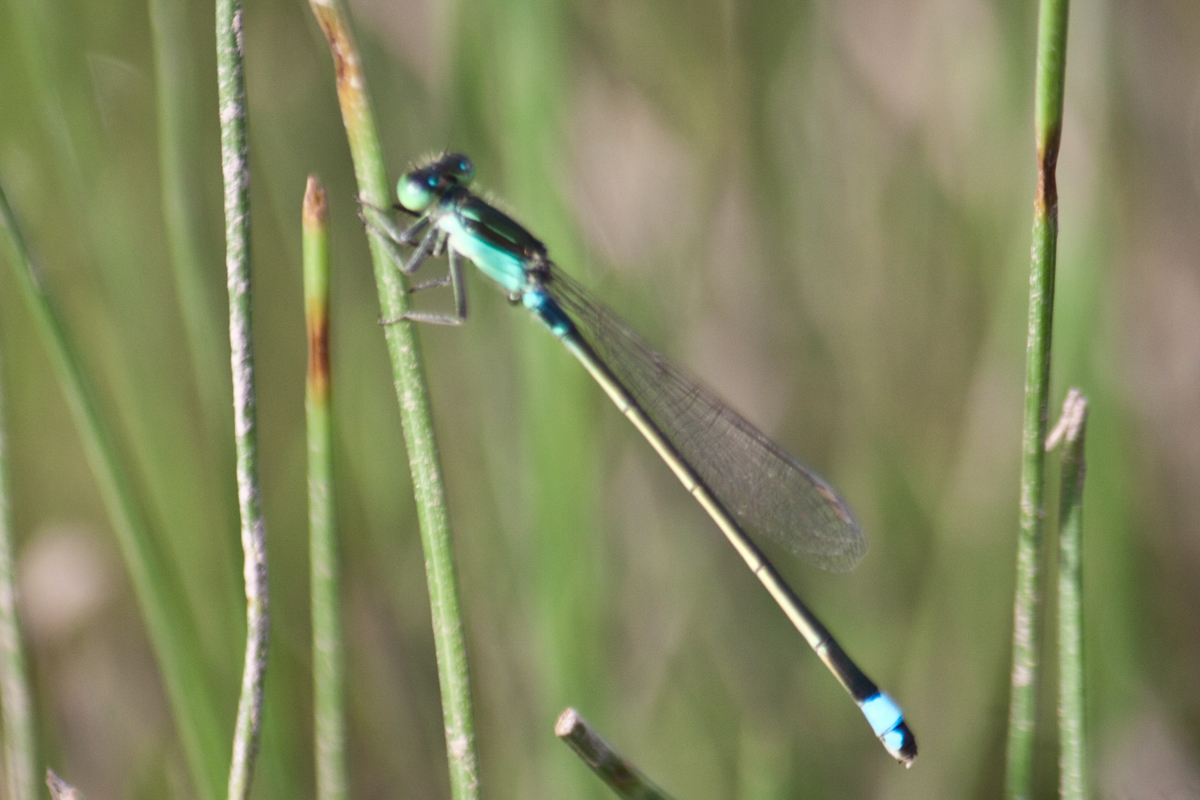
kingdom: Animalia
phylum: Arthropoda
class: Insecta
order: Odonata
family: Coenagrionidae
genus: Ischnura
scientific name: Ischnura senegalensis
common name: Tropical bluetail
